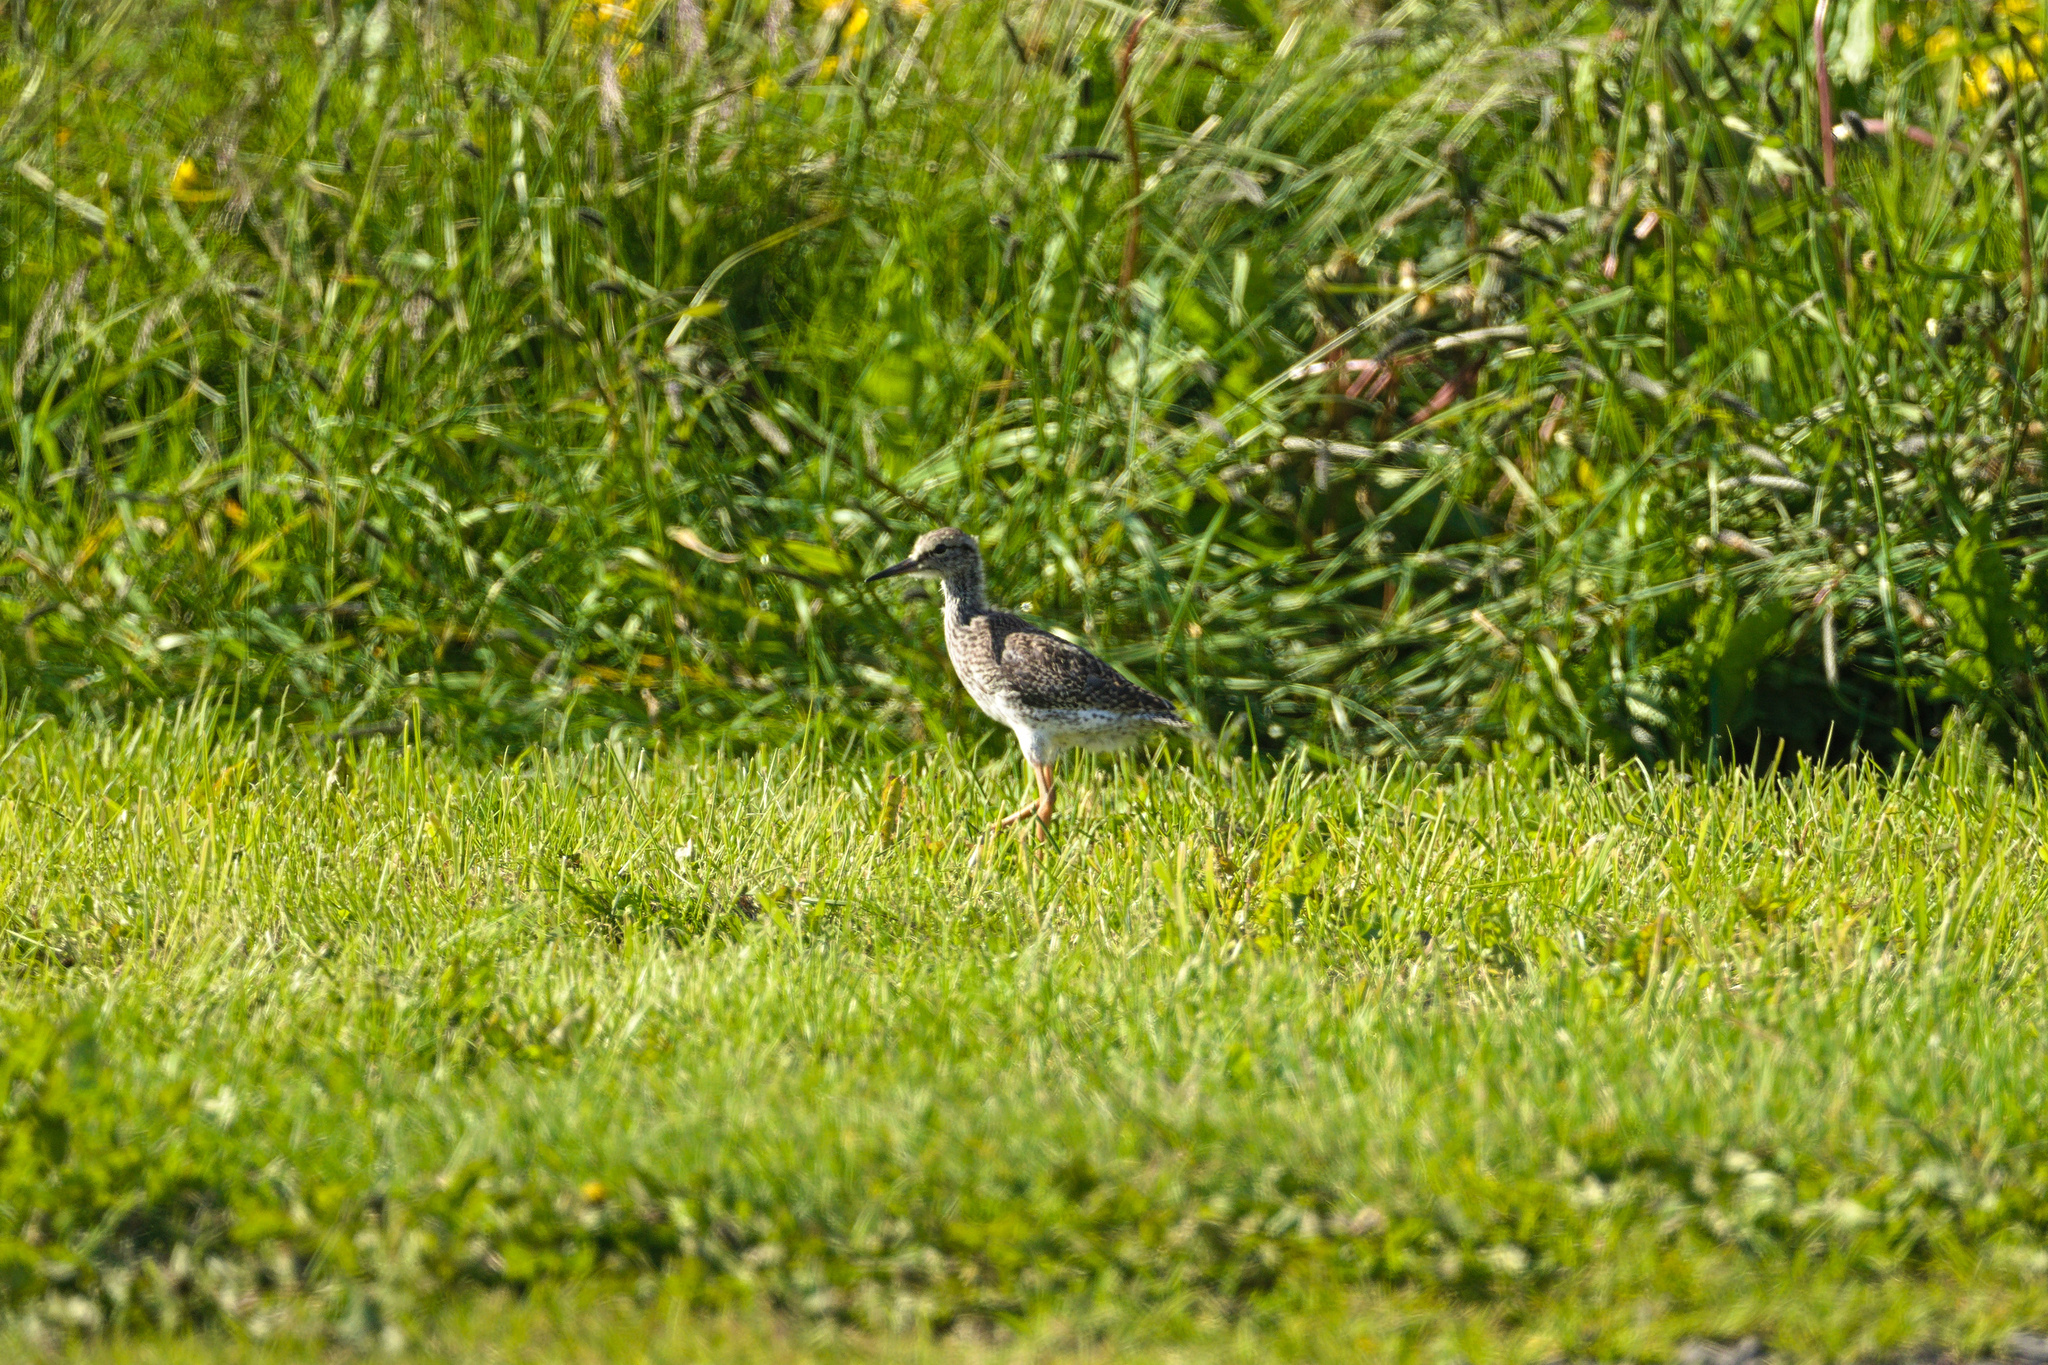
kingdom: Animalia
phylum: Chordata
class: Aves
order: Charadriiformes
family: Scolopacidae
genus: Tringa
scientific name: Tringa totanus
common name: Common redshank
